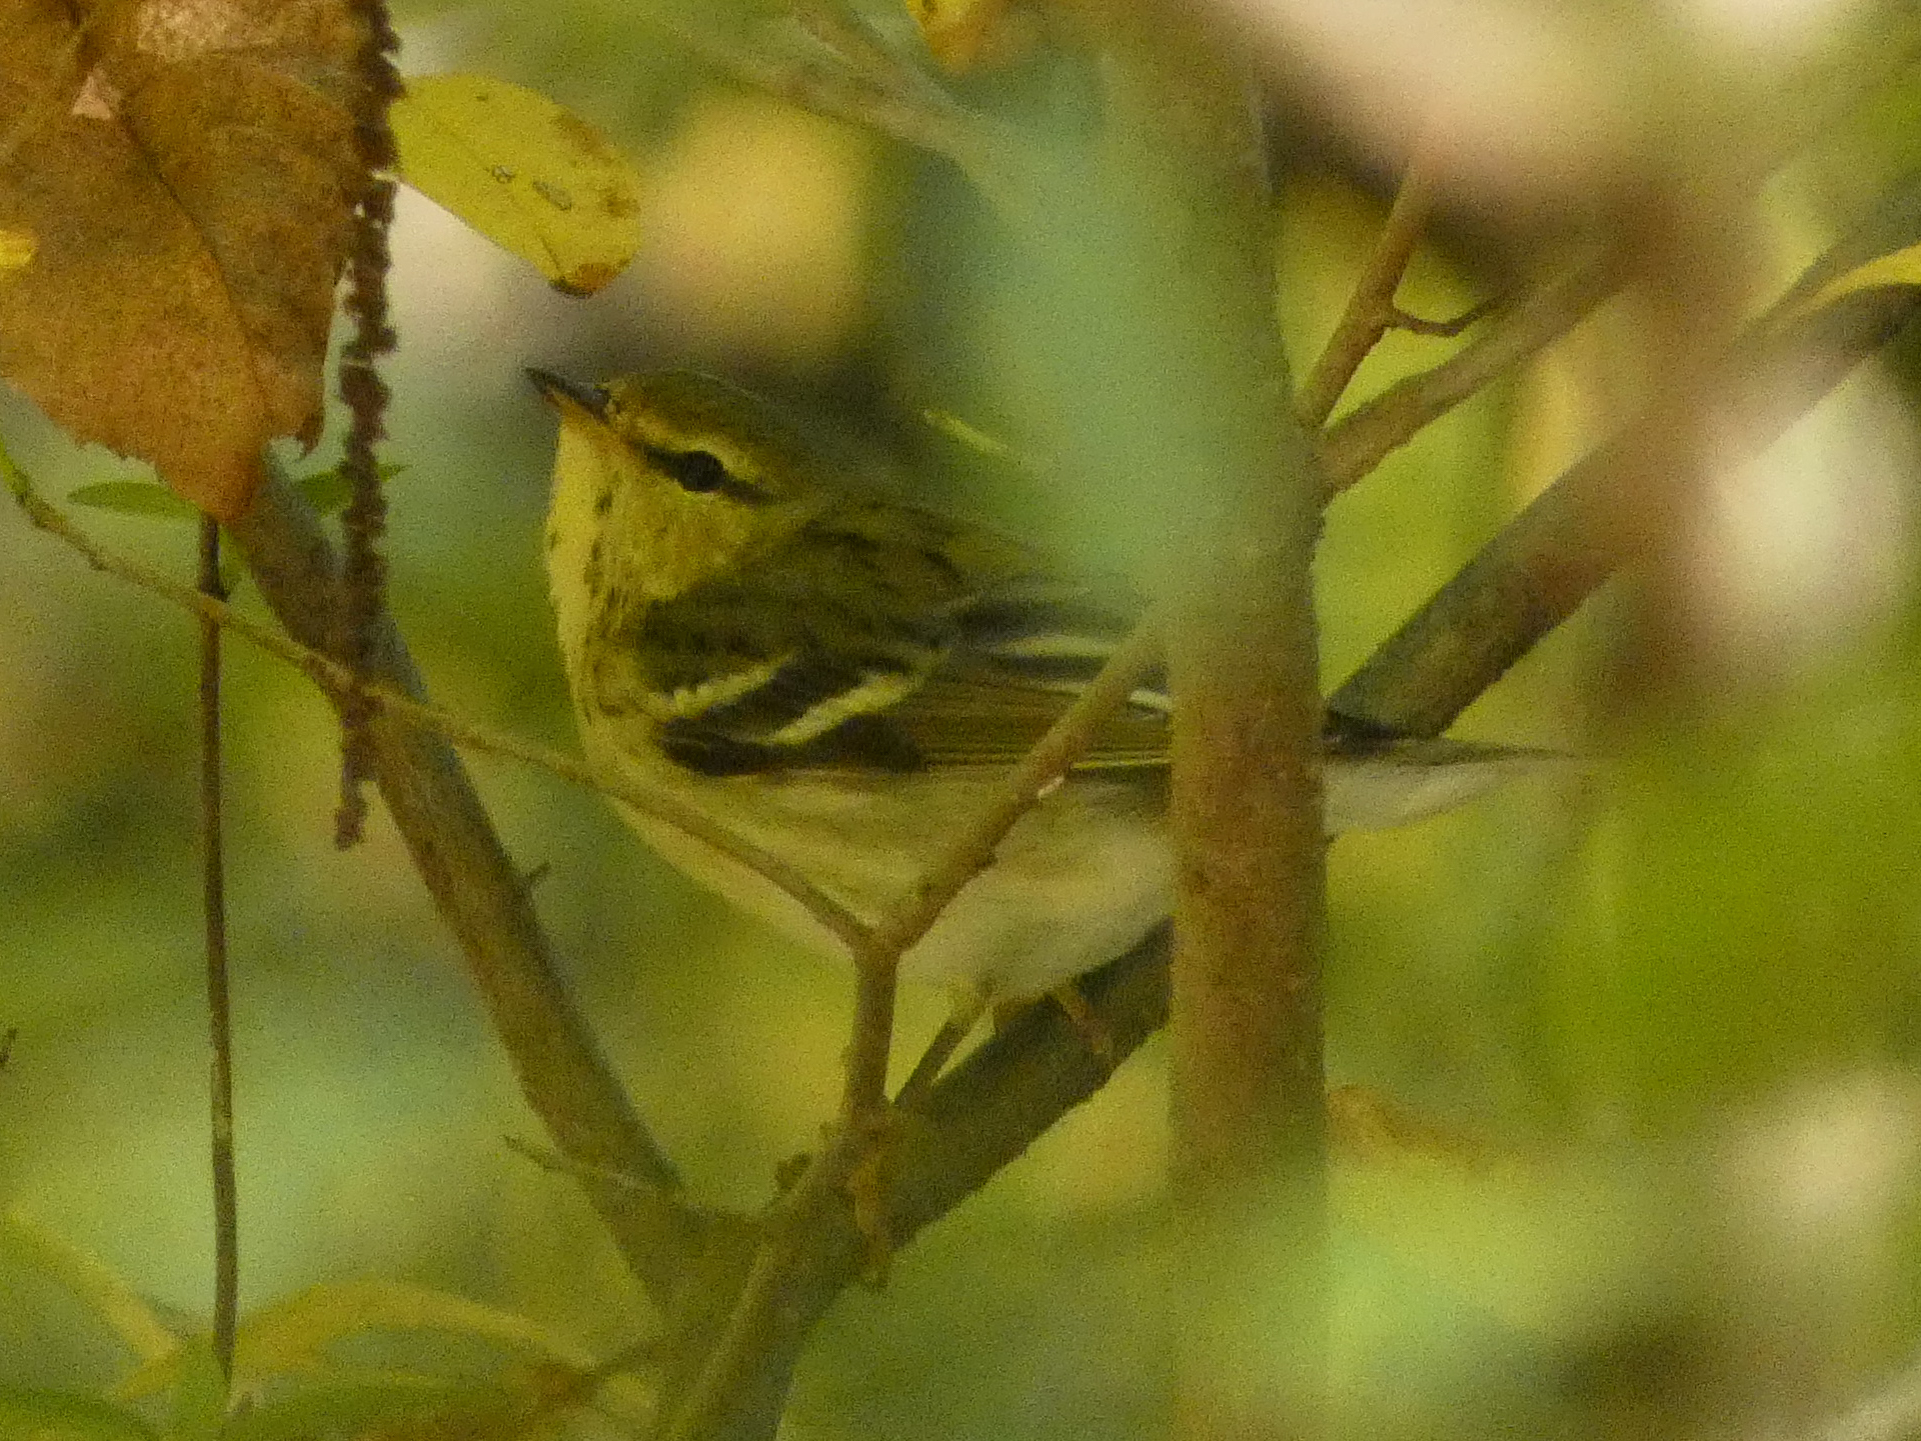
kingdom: Animalia
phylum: Chordata
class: Aves
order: Passeriformes
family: Parulidae
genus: Setophaga
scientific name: Setophaga striata
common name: Blackpoll warbler
